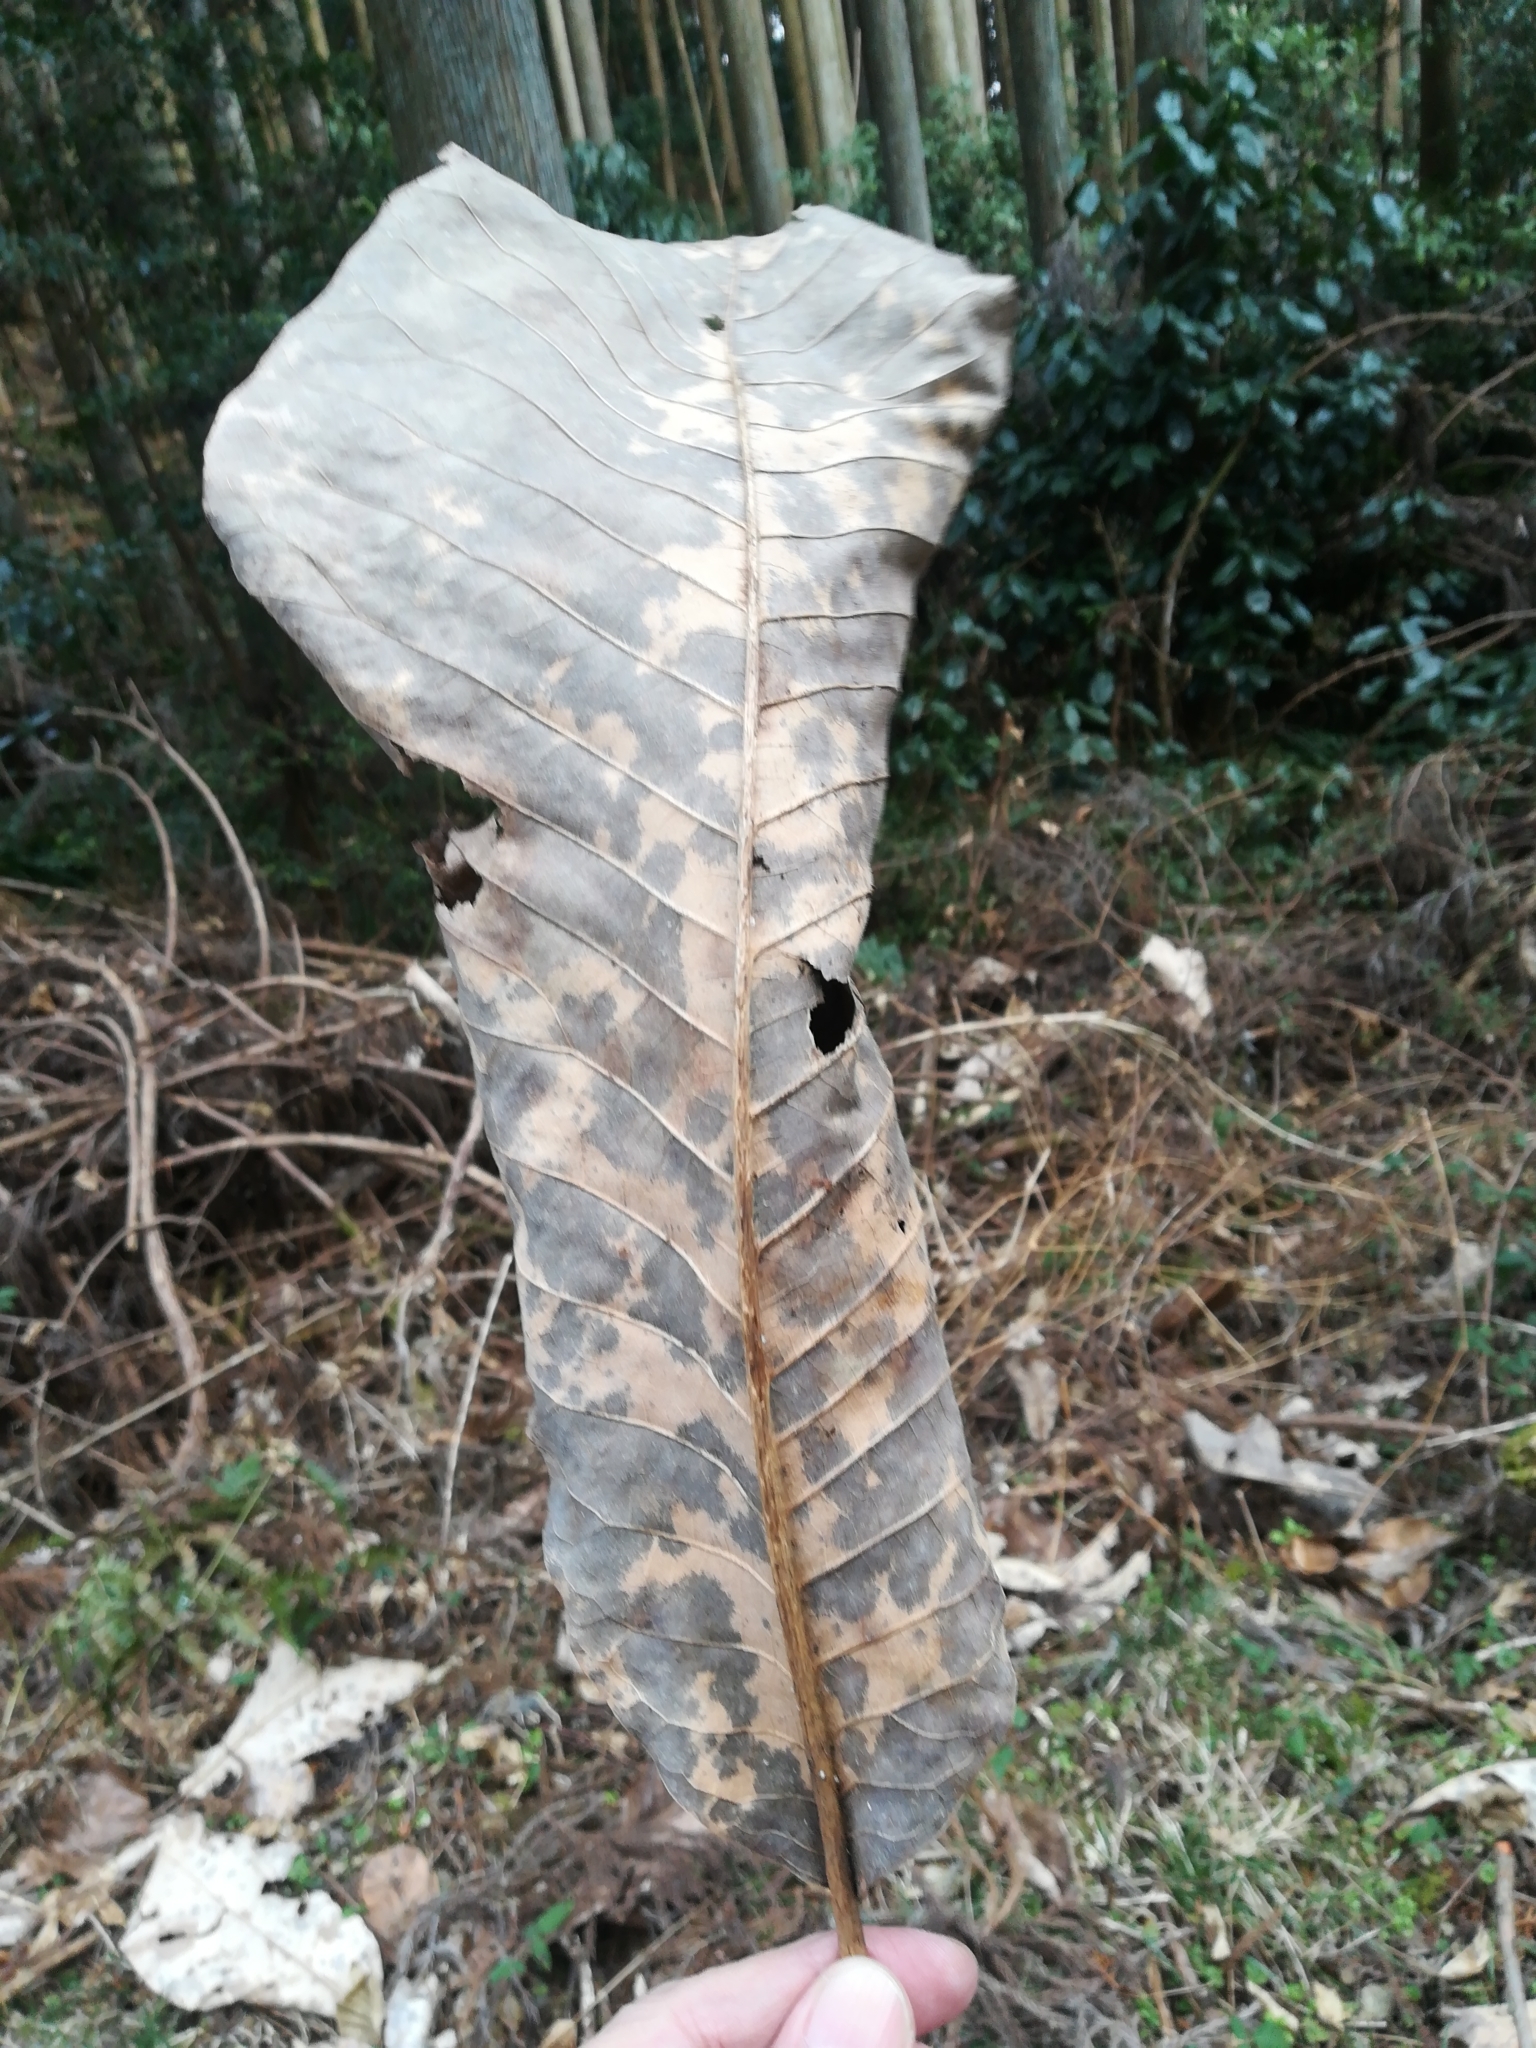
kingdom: Plantae
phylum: Tracheophyta
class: Magnoliopsida
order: Magnoliales
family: Magnoliaceae
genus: Magnolia
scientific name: Magnolia obovata
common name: Japanese whitebark magnolia
